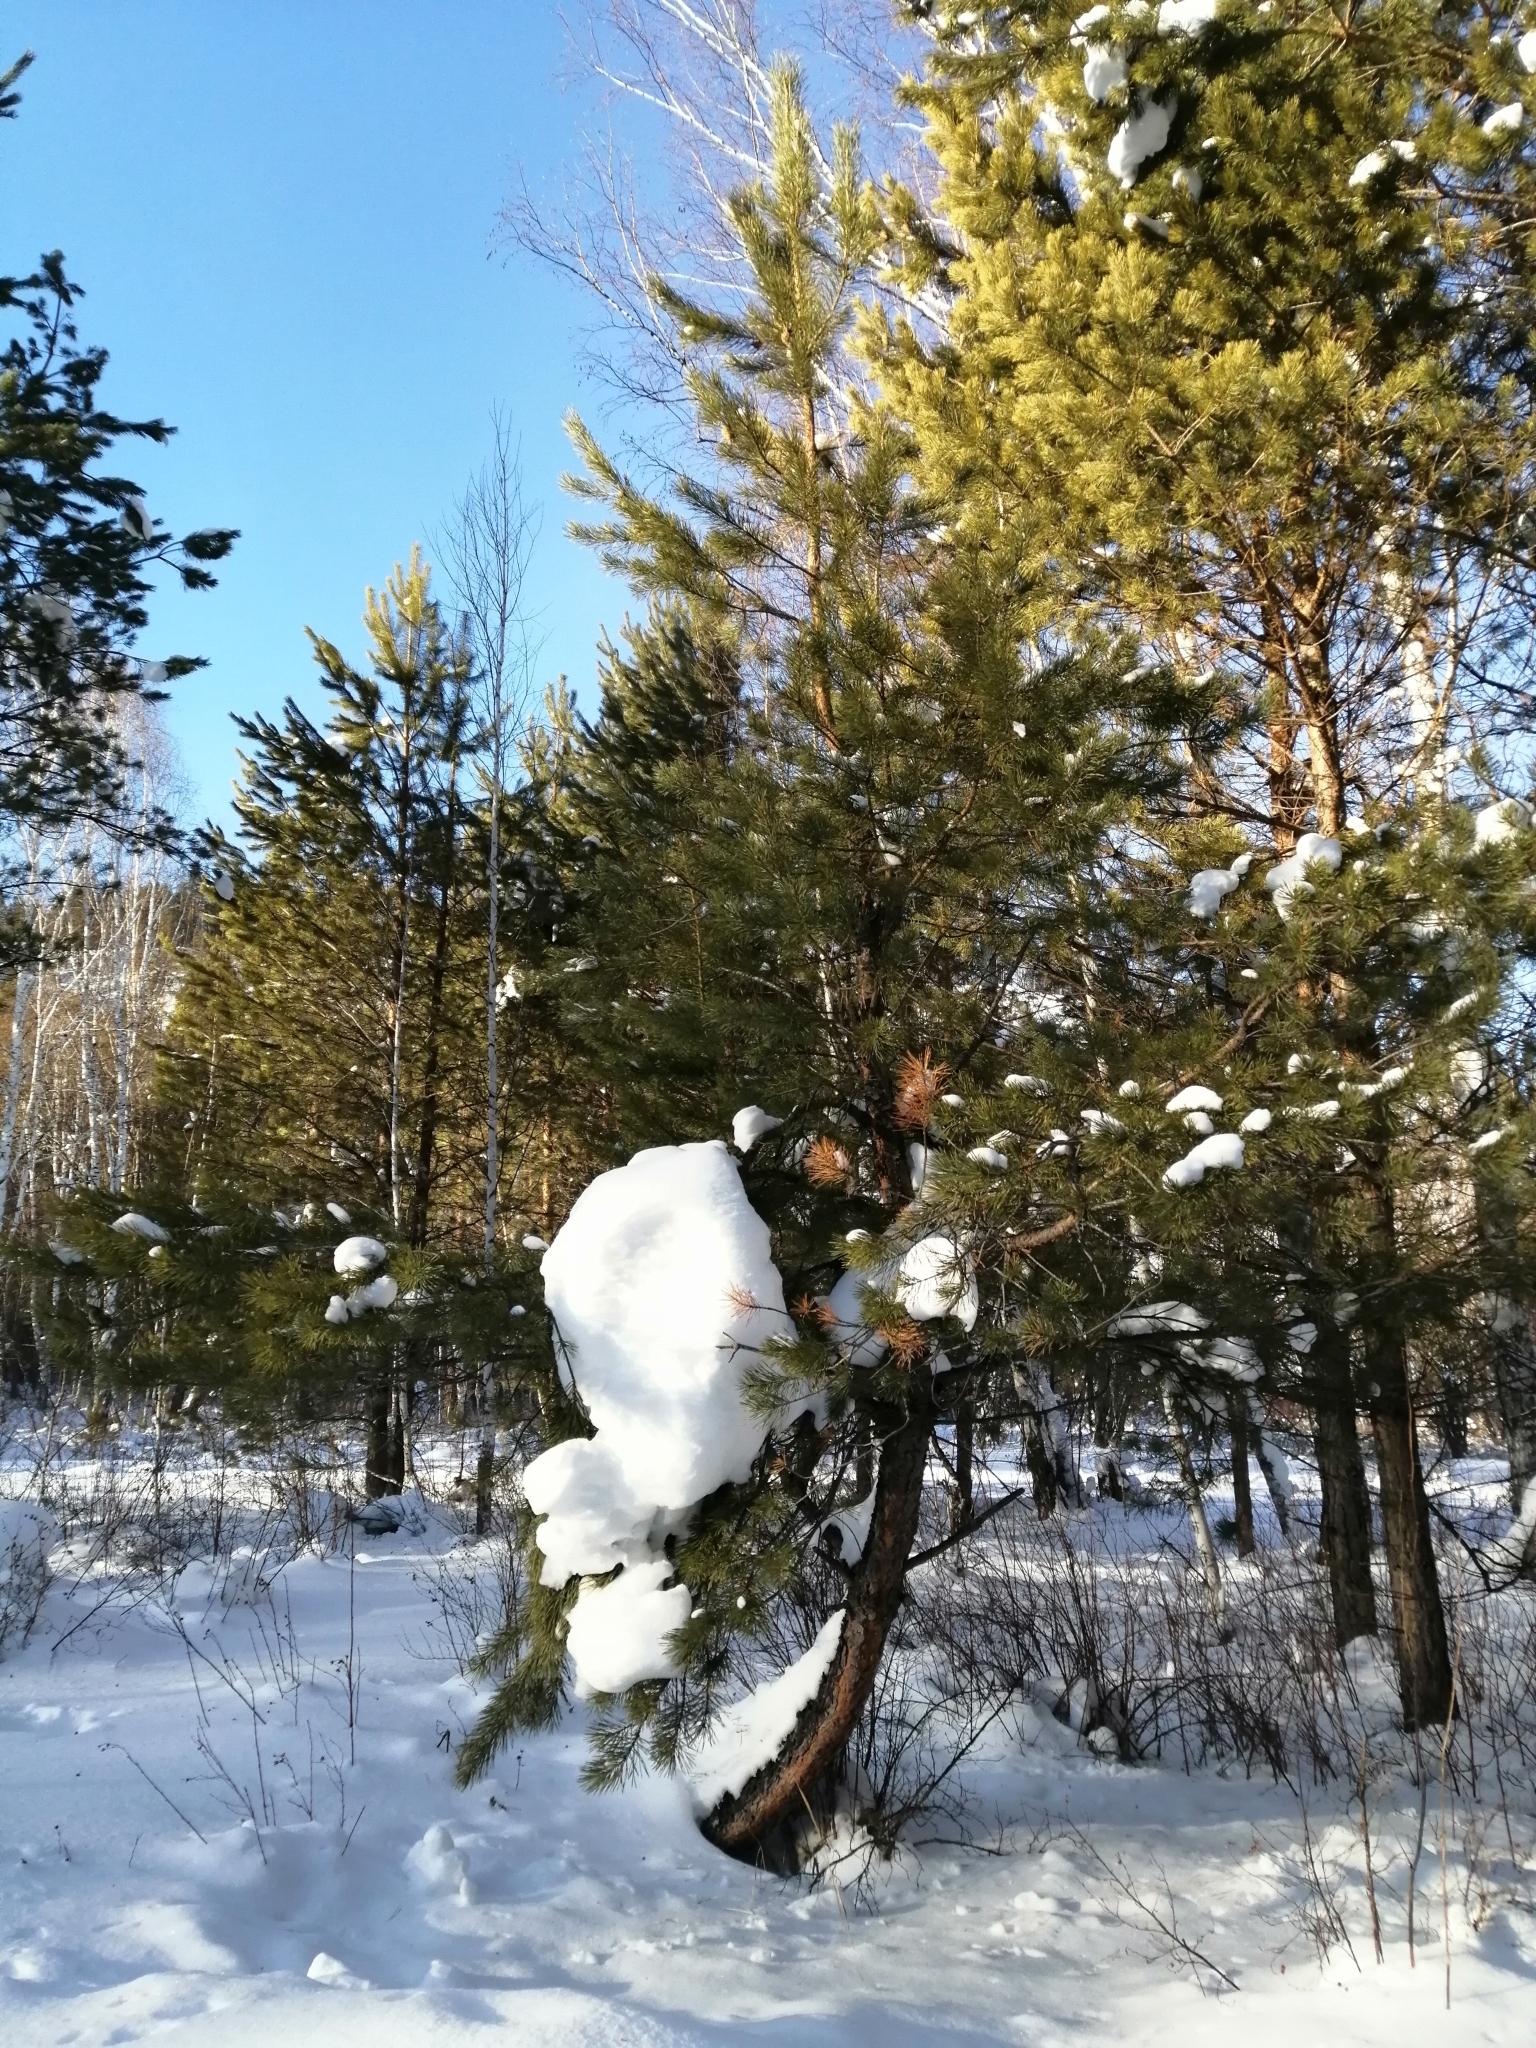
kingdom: Plantae
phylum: Tracheophyta
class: Pinopsida
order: Pinales
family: Pinaceae
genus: Pinus
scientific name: Pinus sylvestris
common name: Scots pine
